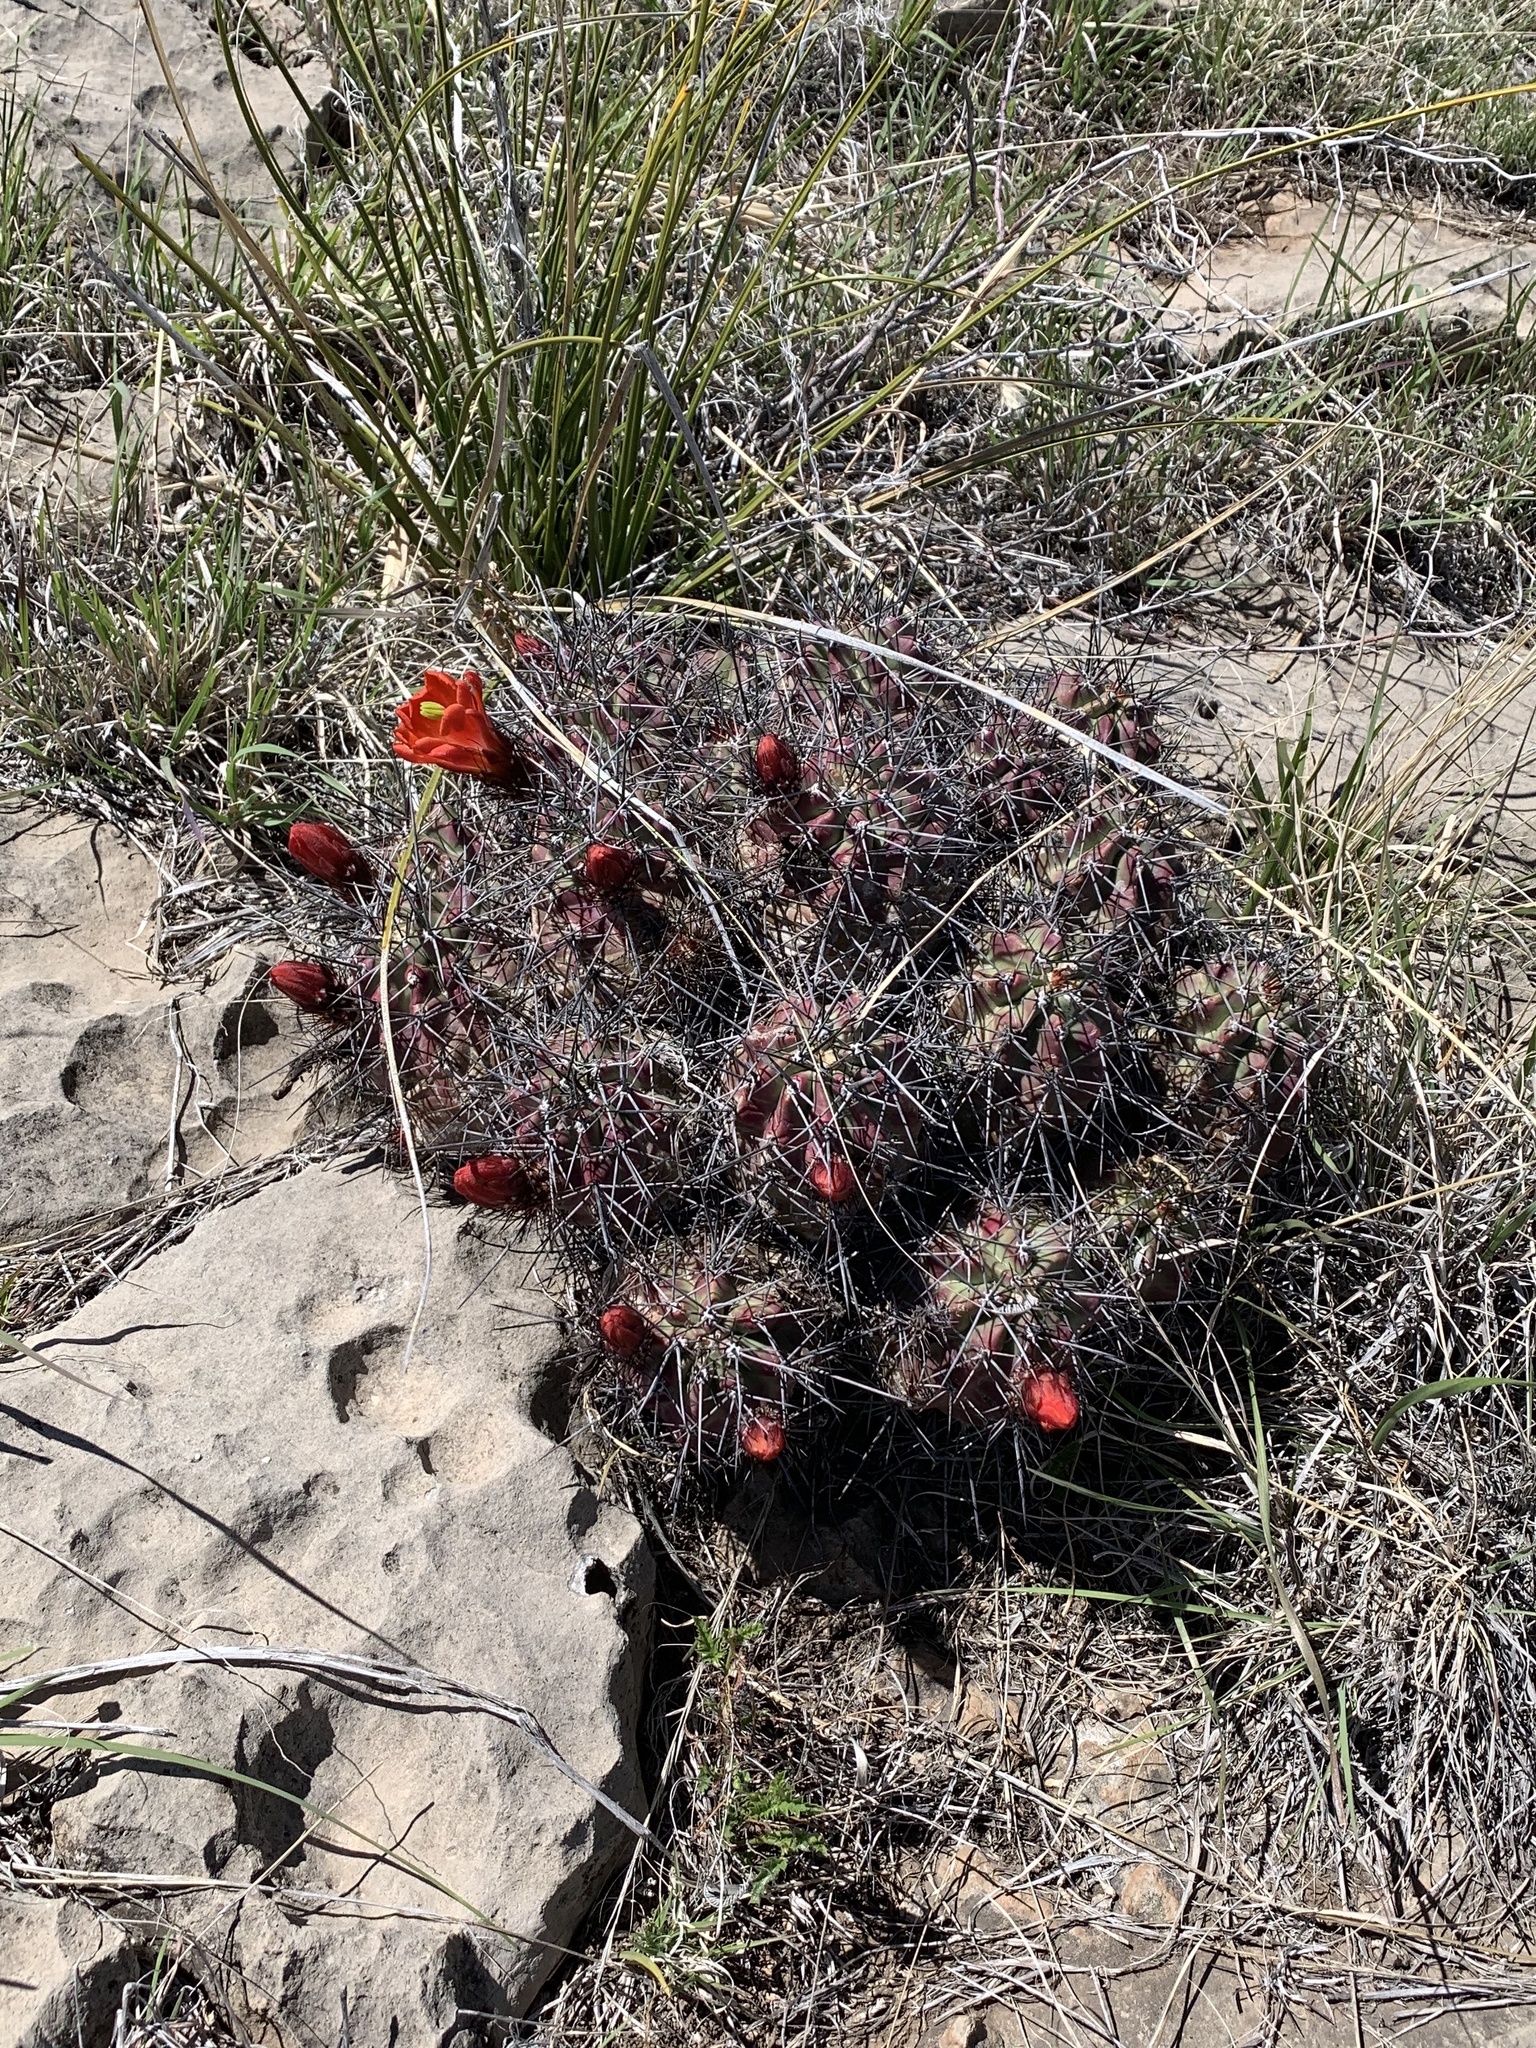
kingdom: Plantae
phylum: Tracheophyta
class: Magnoliopsida
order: Caryophyllales
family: Cactaceae
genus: Echinocereus
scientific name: Echinocereus coccineus
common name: Scarlet hedgehog cactus
